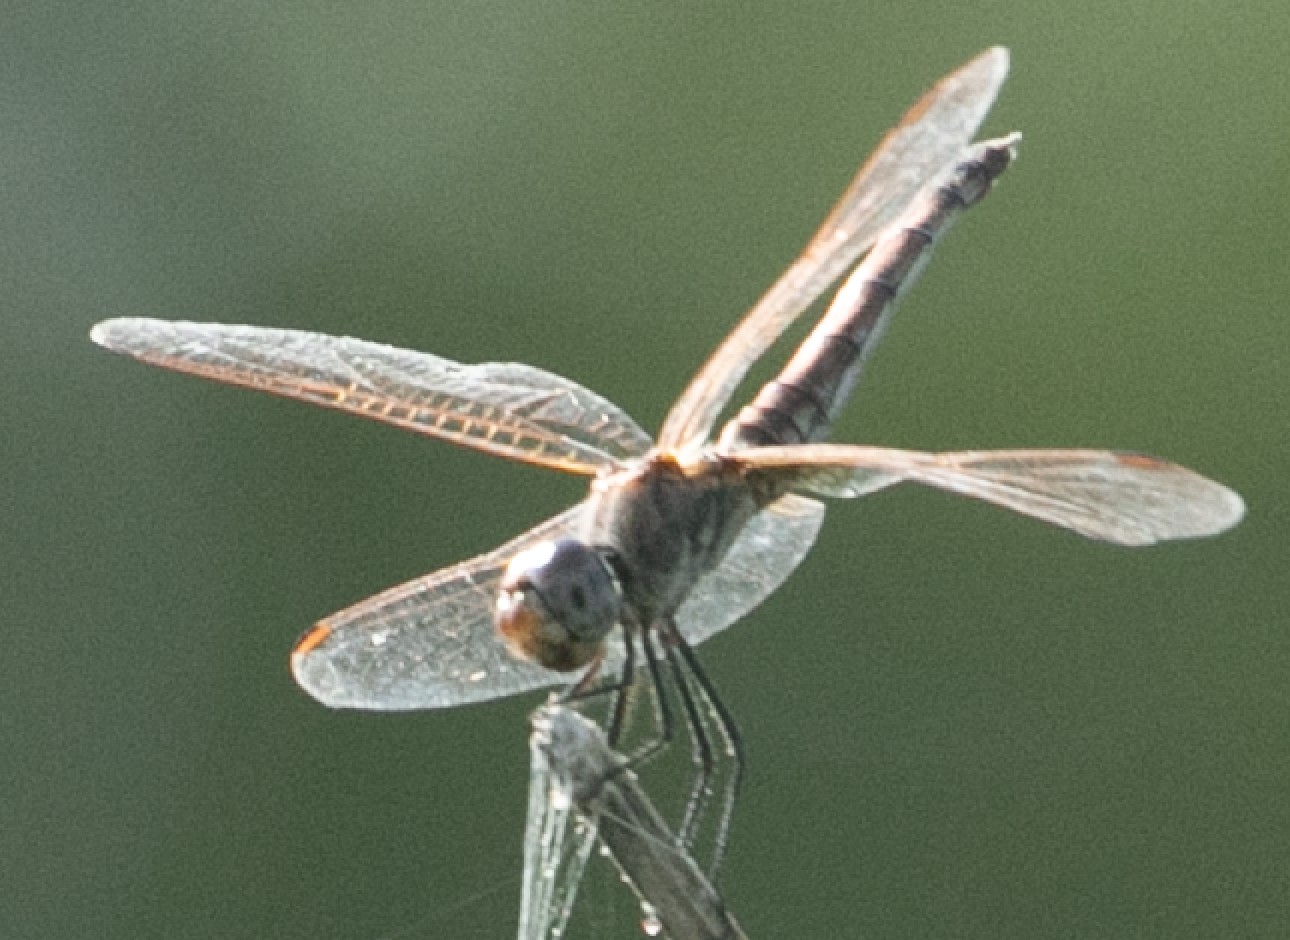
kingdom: Animalia
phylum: Arthropoda
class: Insecta
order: Odonata
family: Libellulidae
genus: Trithemis
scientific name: Trithemis annulata
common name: Violet dropwing
